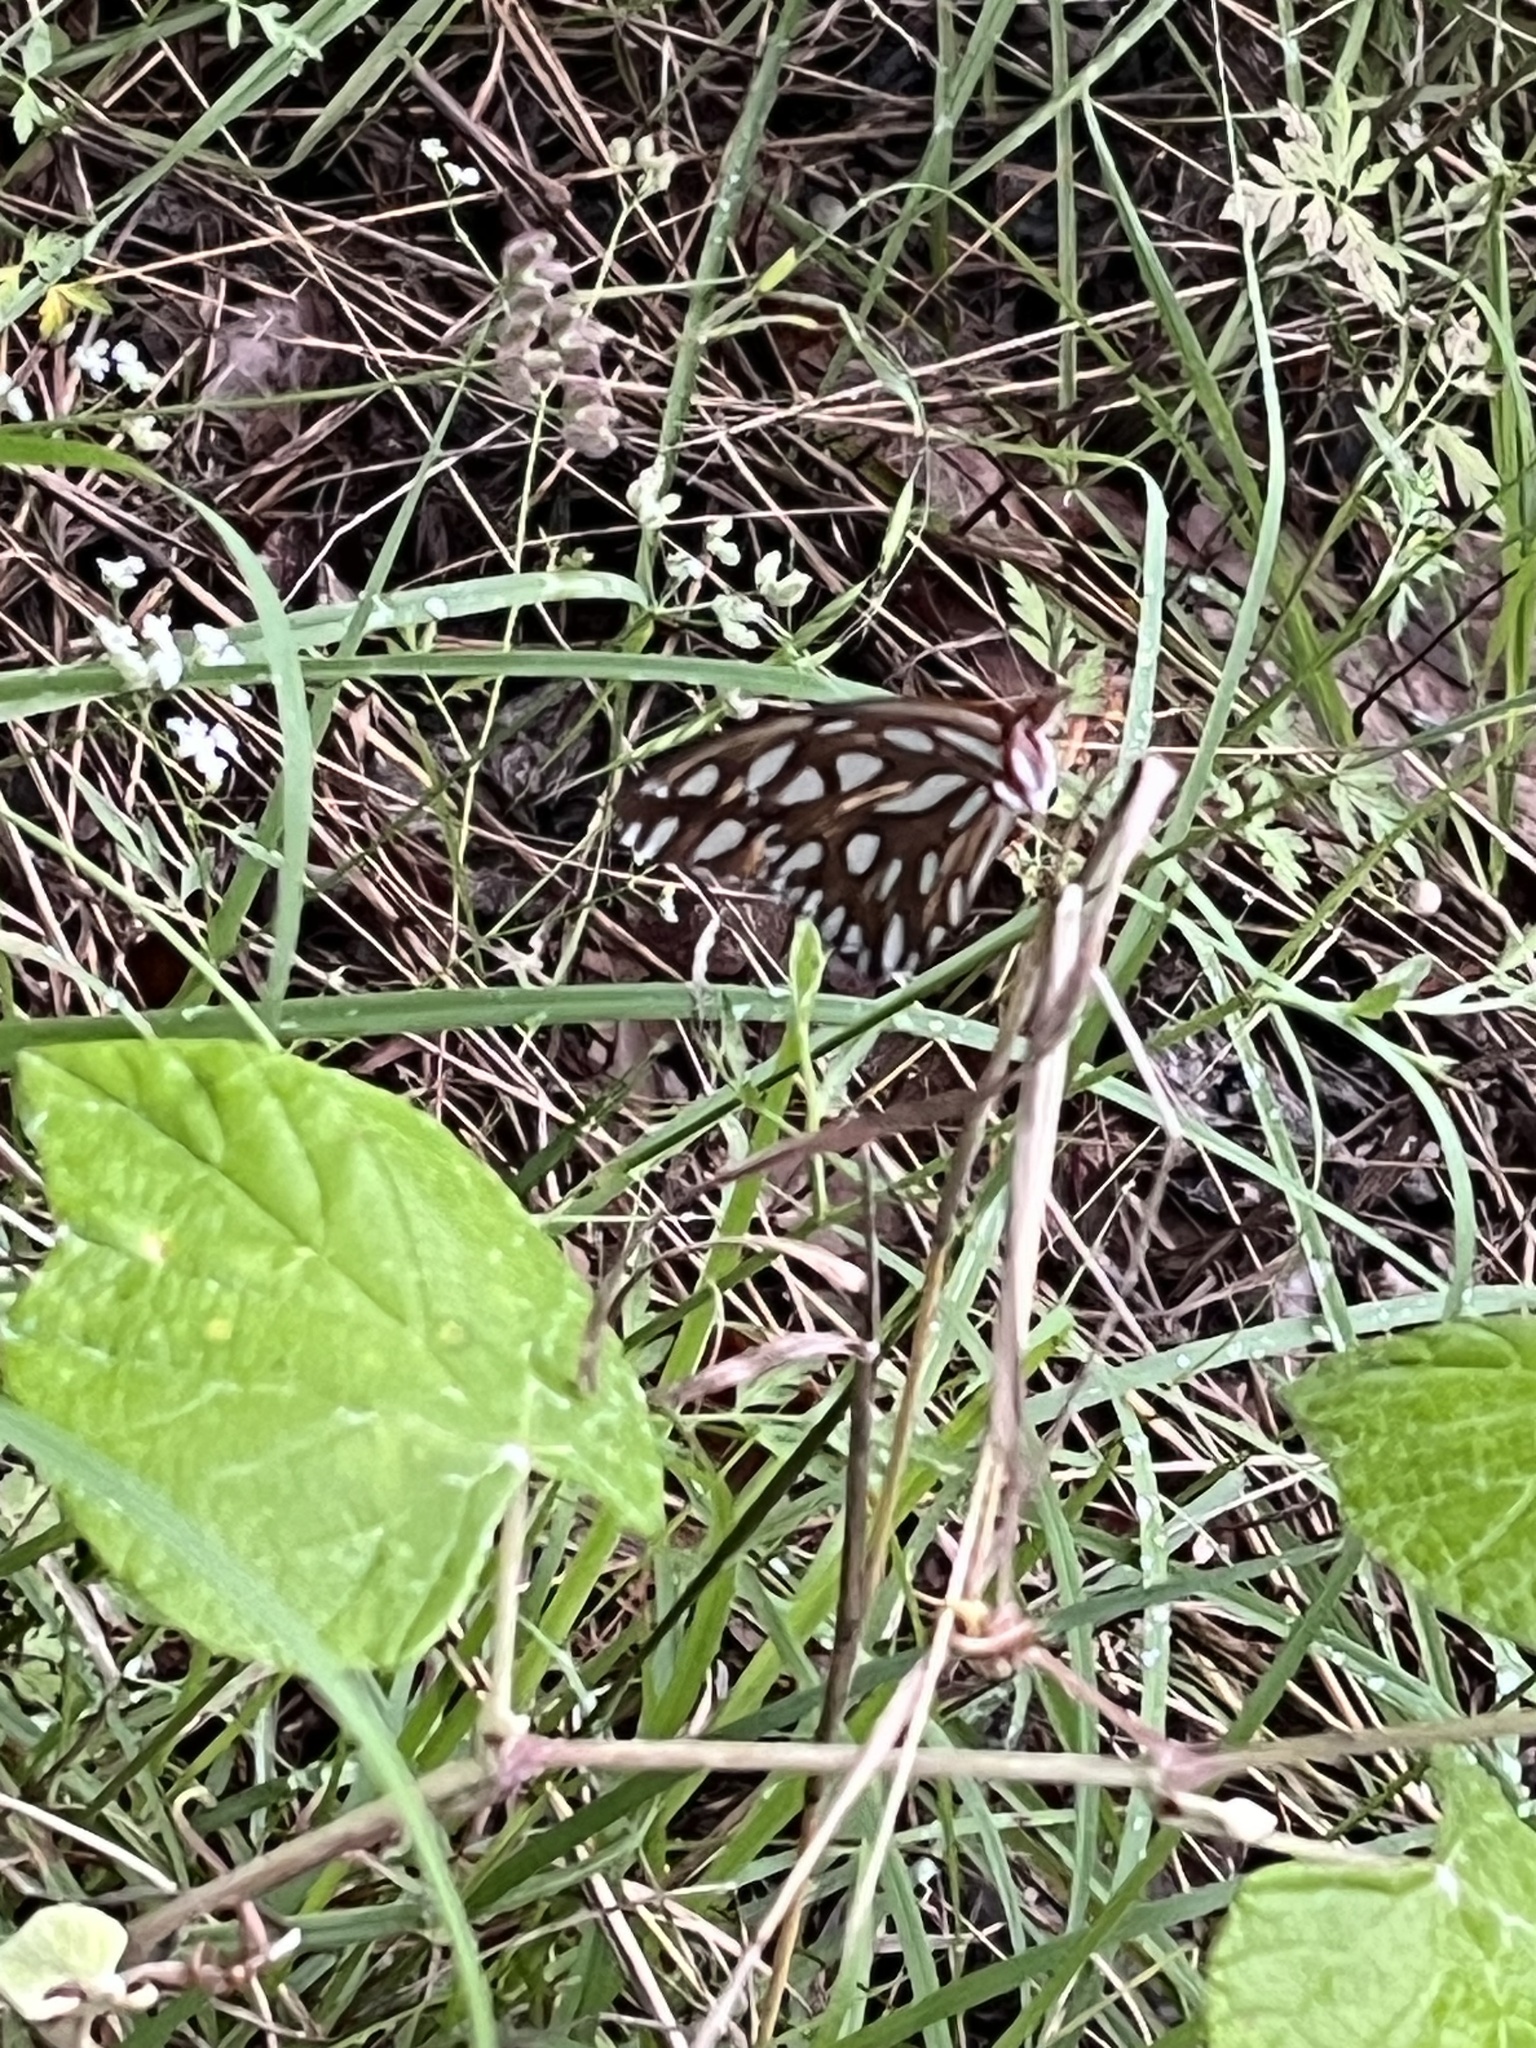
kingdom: Animalia
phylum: Arthropoda
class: Insecta
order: Lepidoptera
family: Nymphalidae
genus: Dione
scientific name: Dione vanillae
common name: Gulf fritillary
